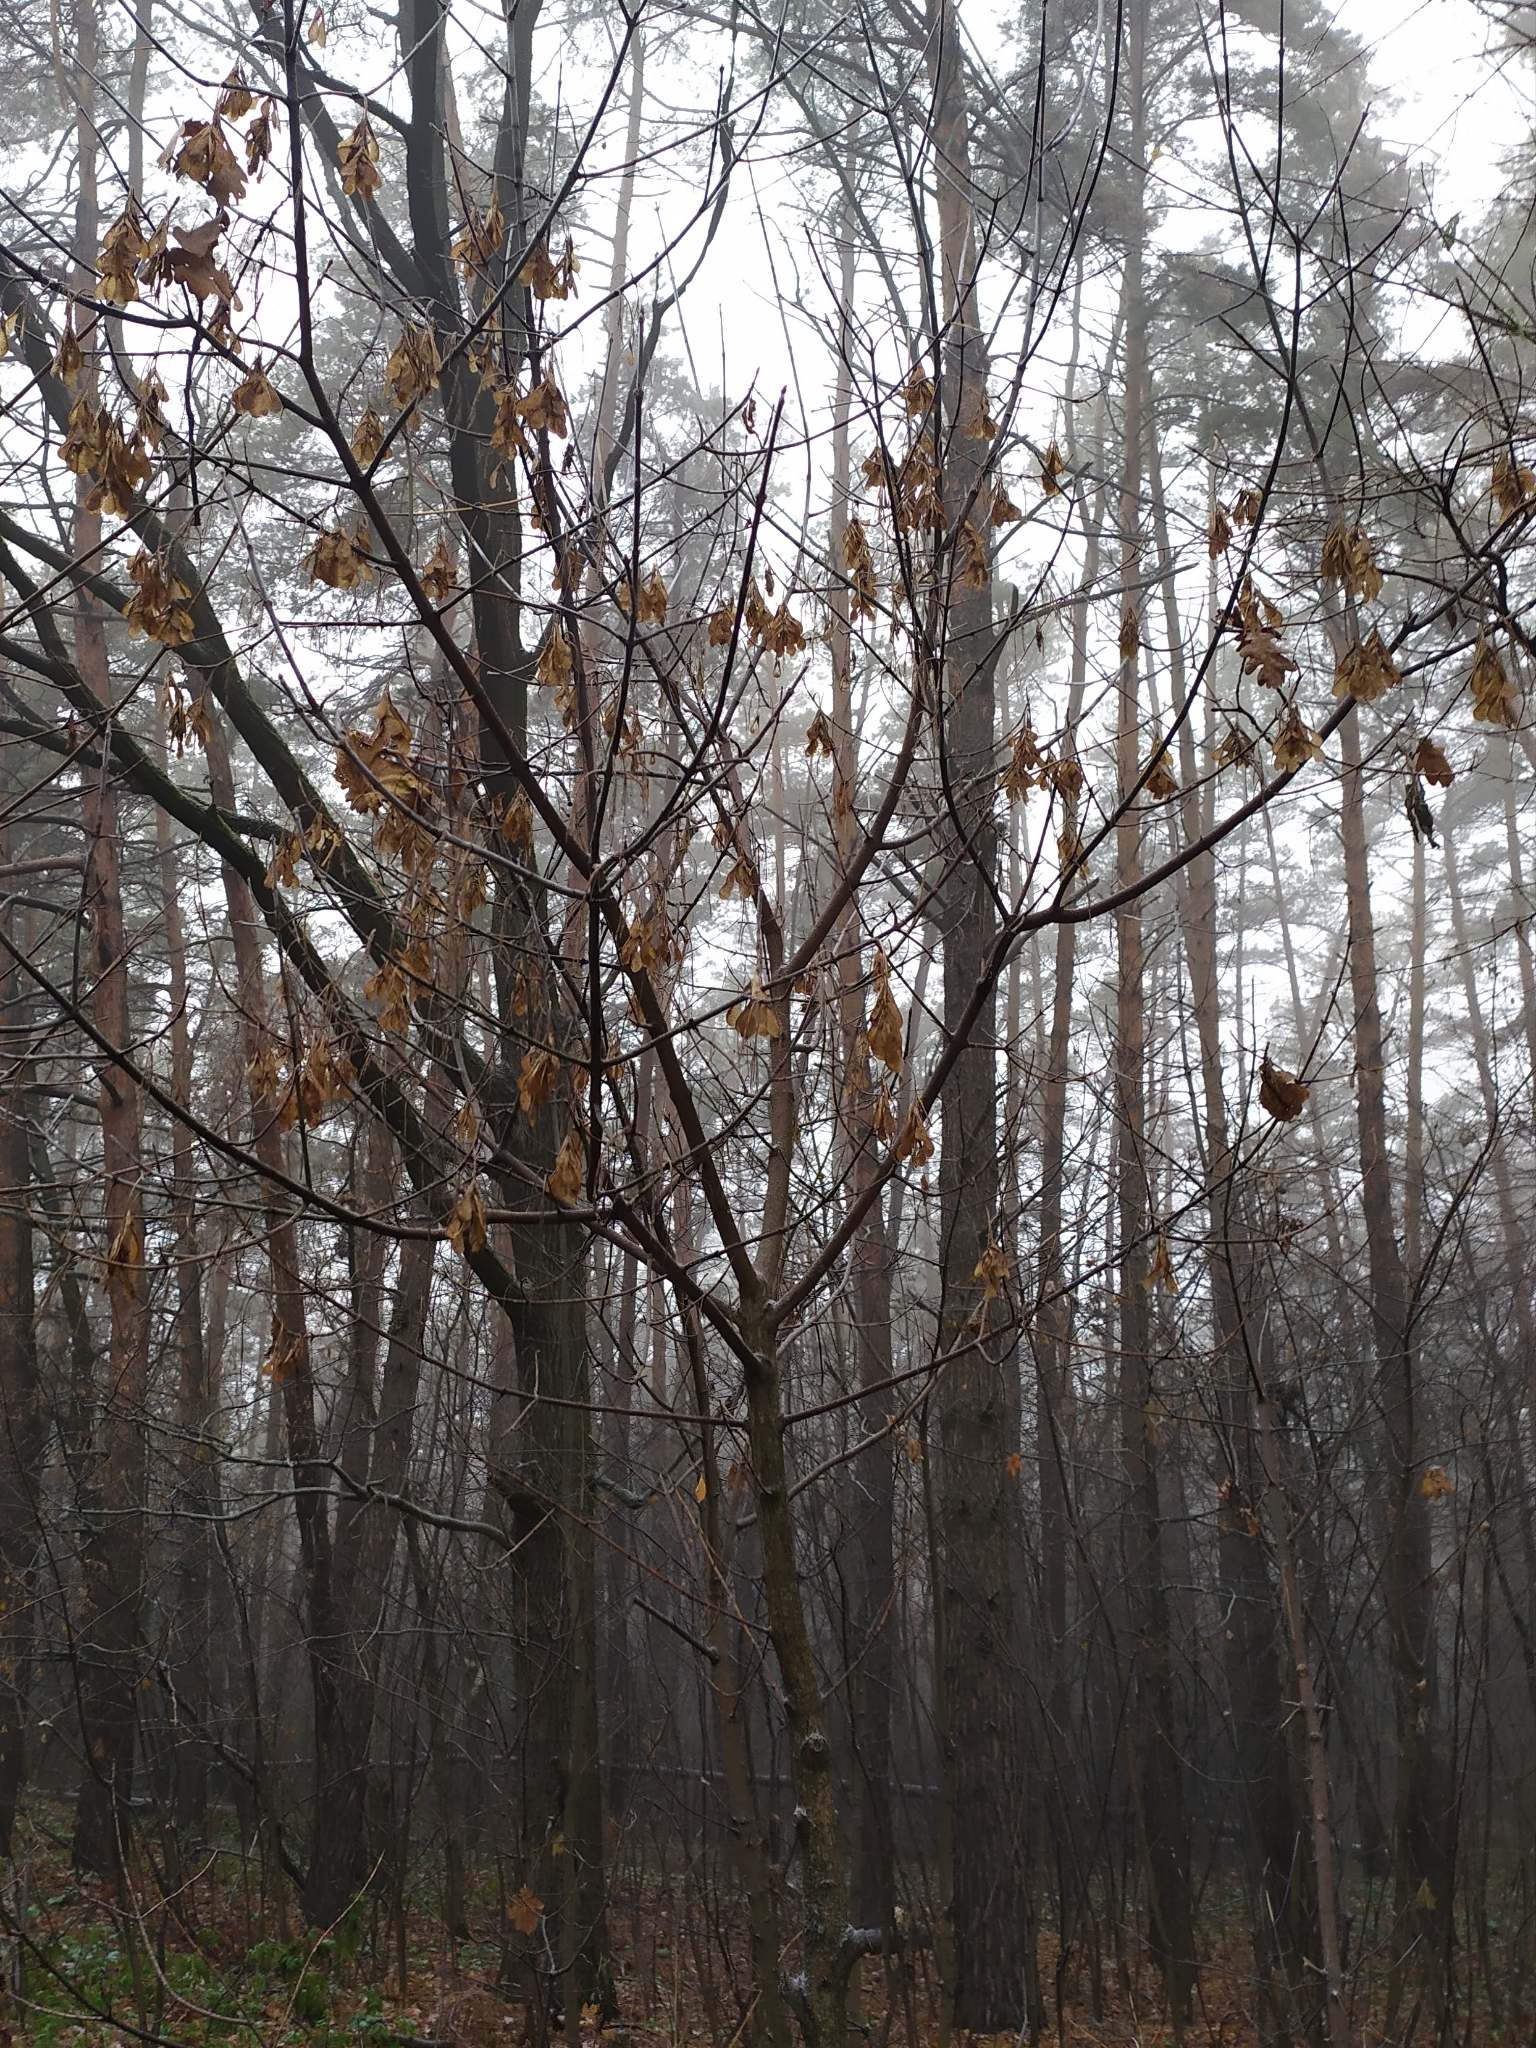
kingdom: Plantae
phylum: Tracheophyta
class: Magnoliopsida
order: Sapindales
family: Sapindaceae
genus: Acer
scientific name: Acer negundo
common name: Ashleaf maple
